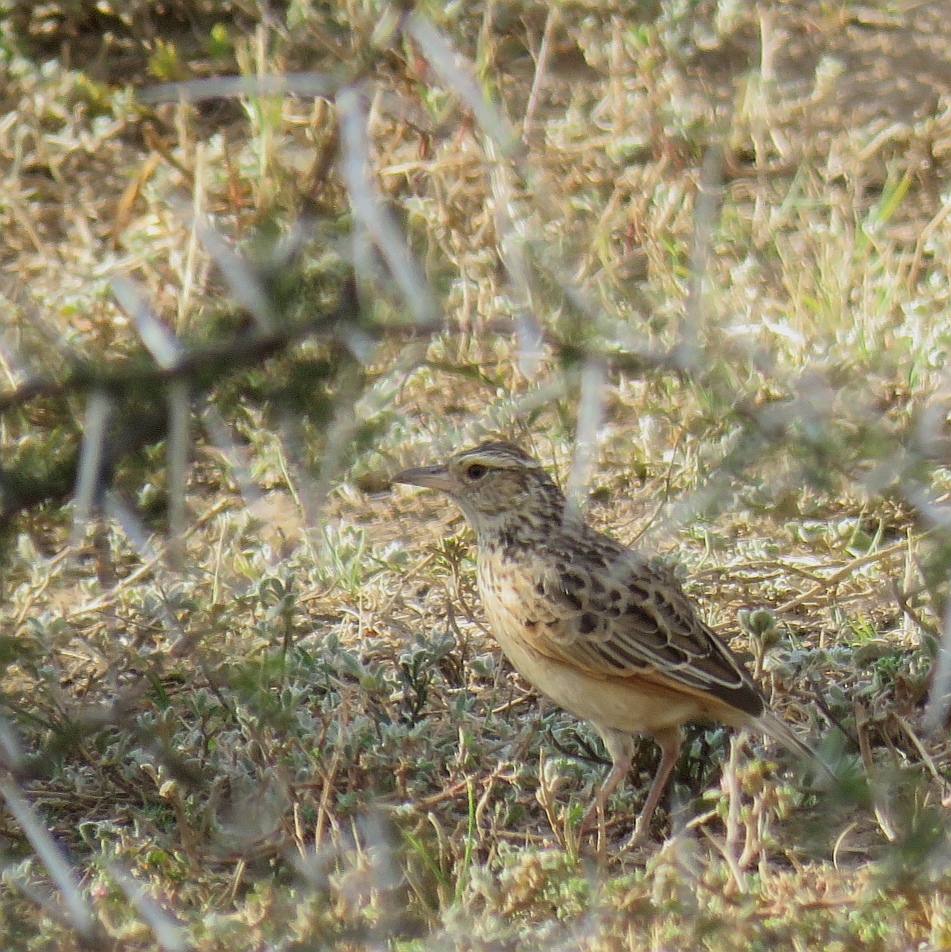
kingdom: Animalia
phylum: Chordata
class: Aves
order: Passeriformes
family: Alaudidae
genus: Mirafra
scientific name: Mirafra africana
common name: Rufous-naped lark
